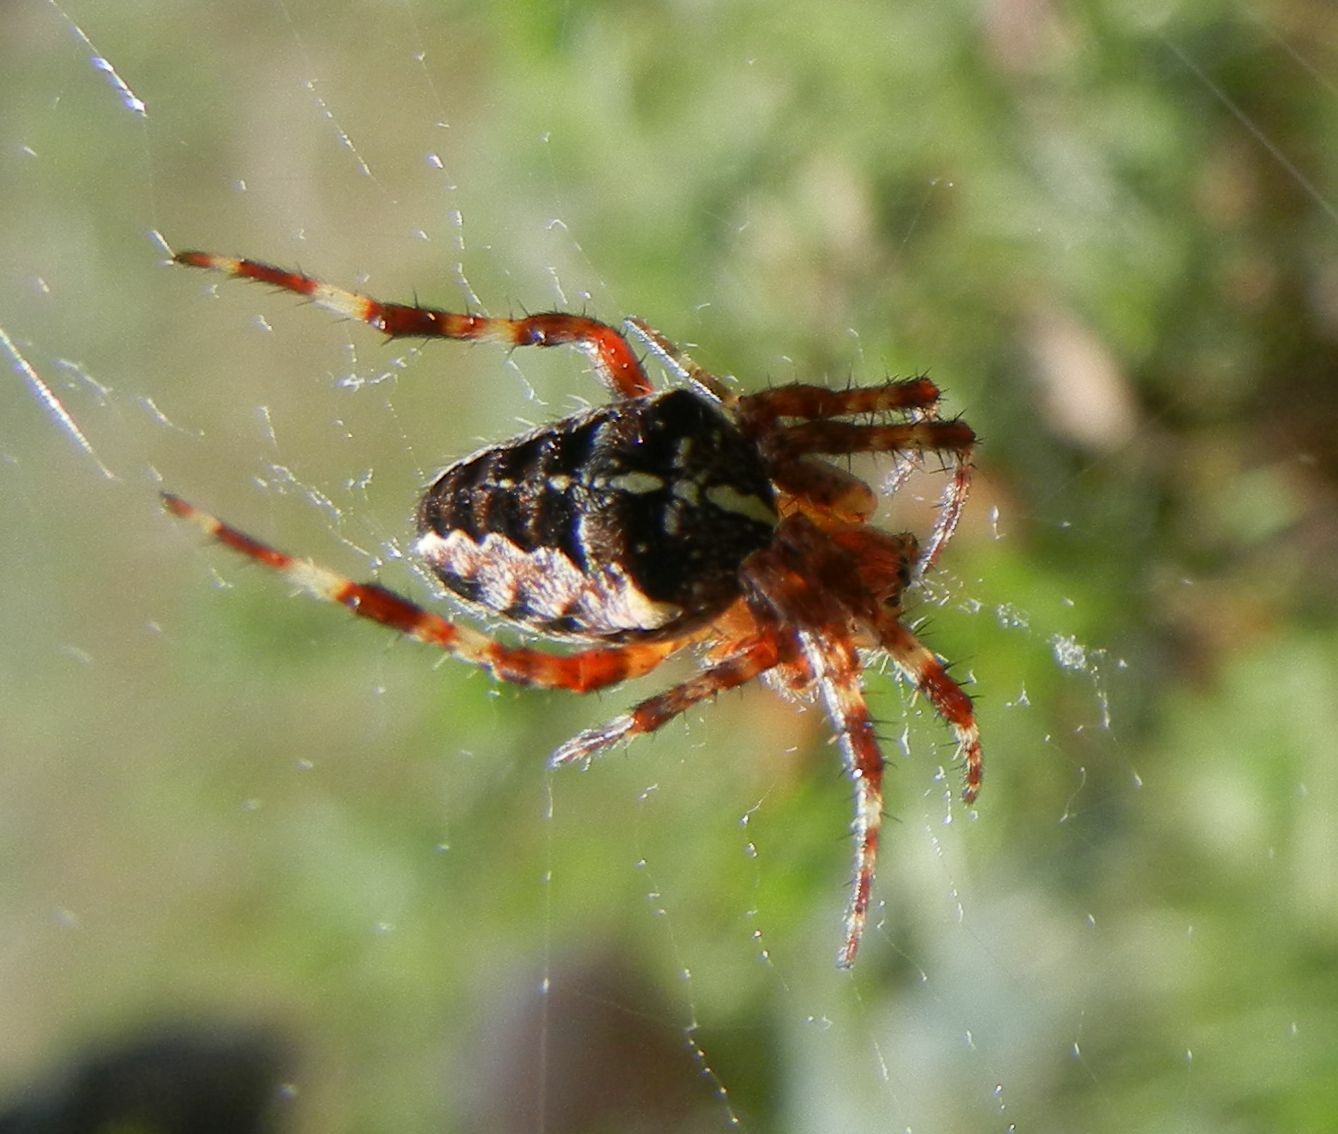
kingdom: Animalia
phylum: Arthropoda
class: Arachnida
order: Araneae
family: Araneidae
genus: Araneus
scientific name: Araneus diadematus
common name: Cross orbweaver
